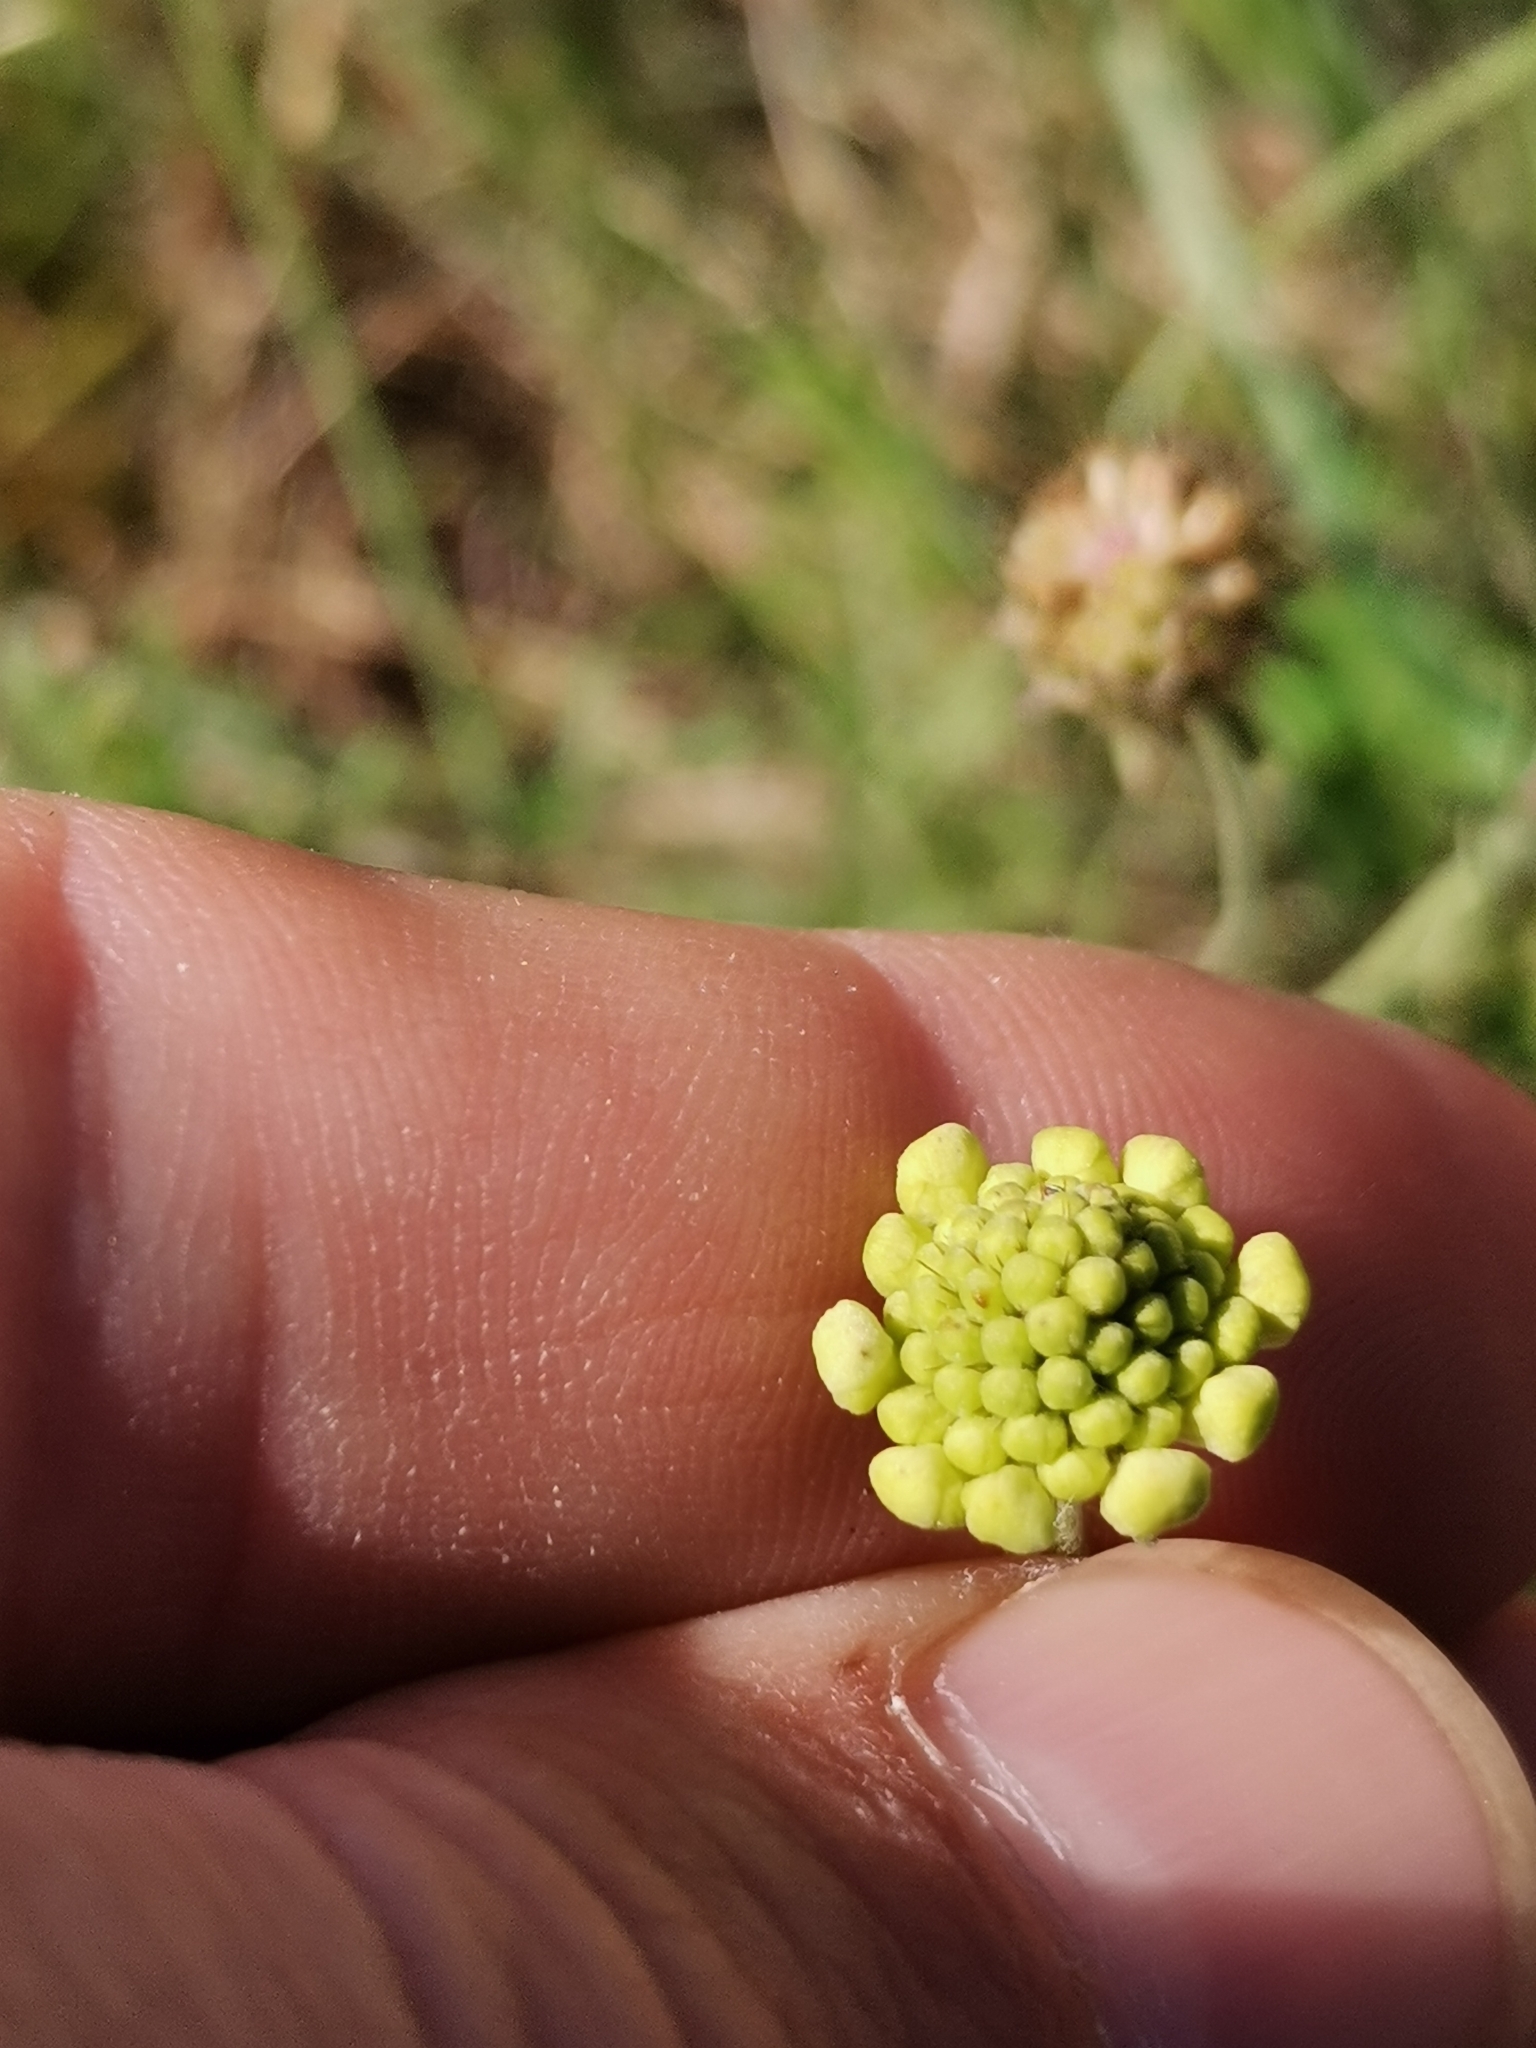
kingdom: Plantae
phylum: Tracheophyta
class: Magnoliopsida
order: Dipsacales
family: Caprifoliaceae
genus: Scabiosa
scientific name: Scabiosa ochroleuca
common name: Cream pincushions
